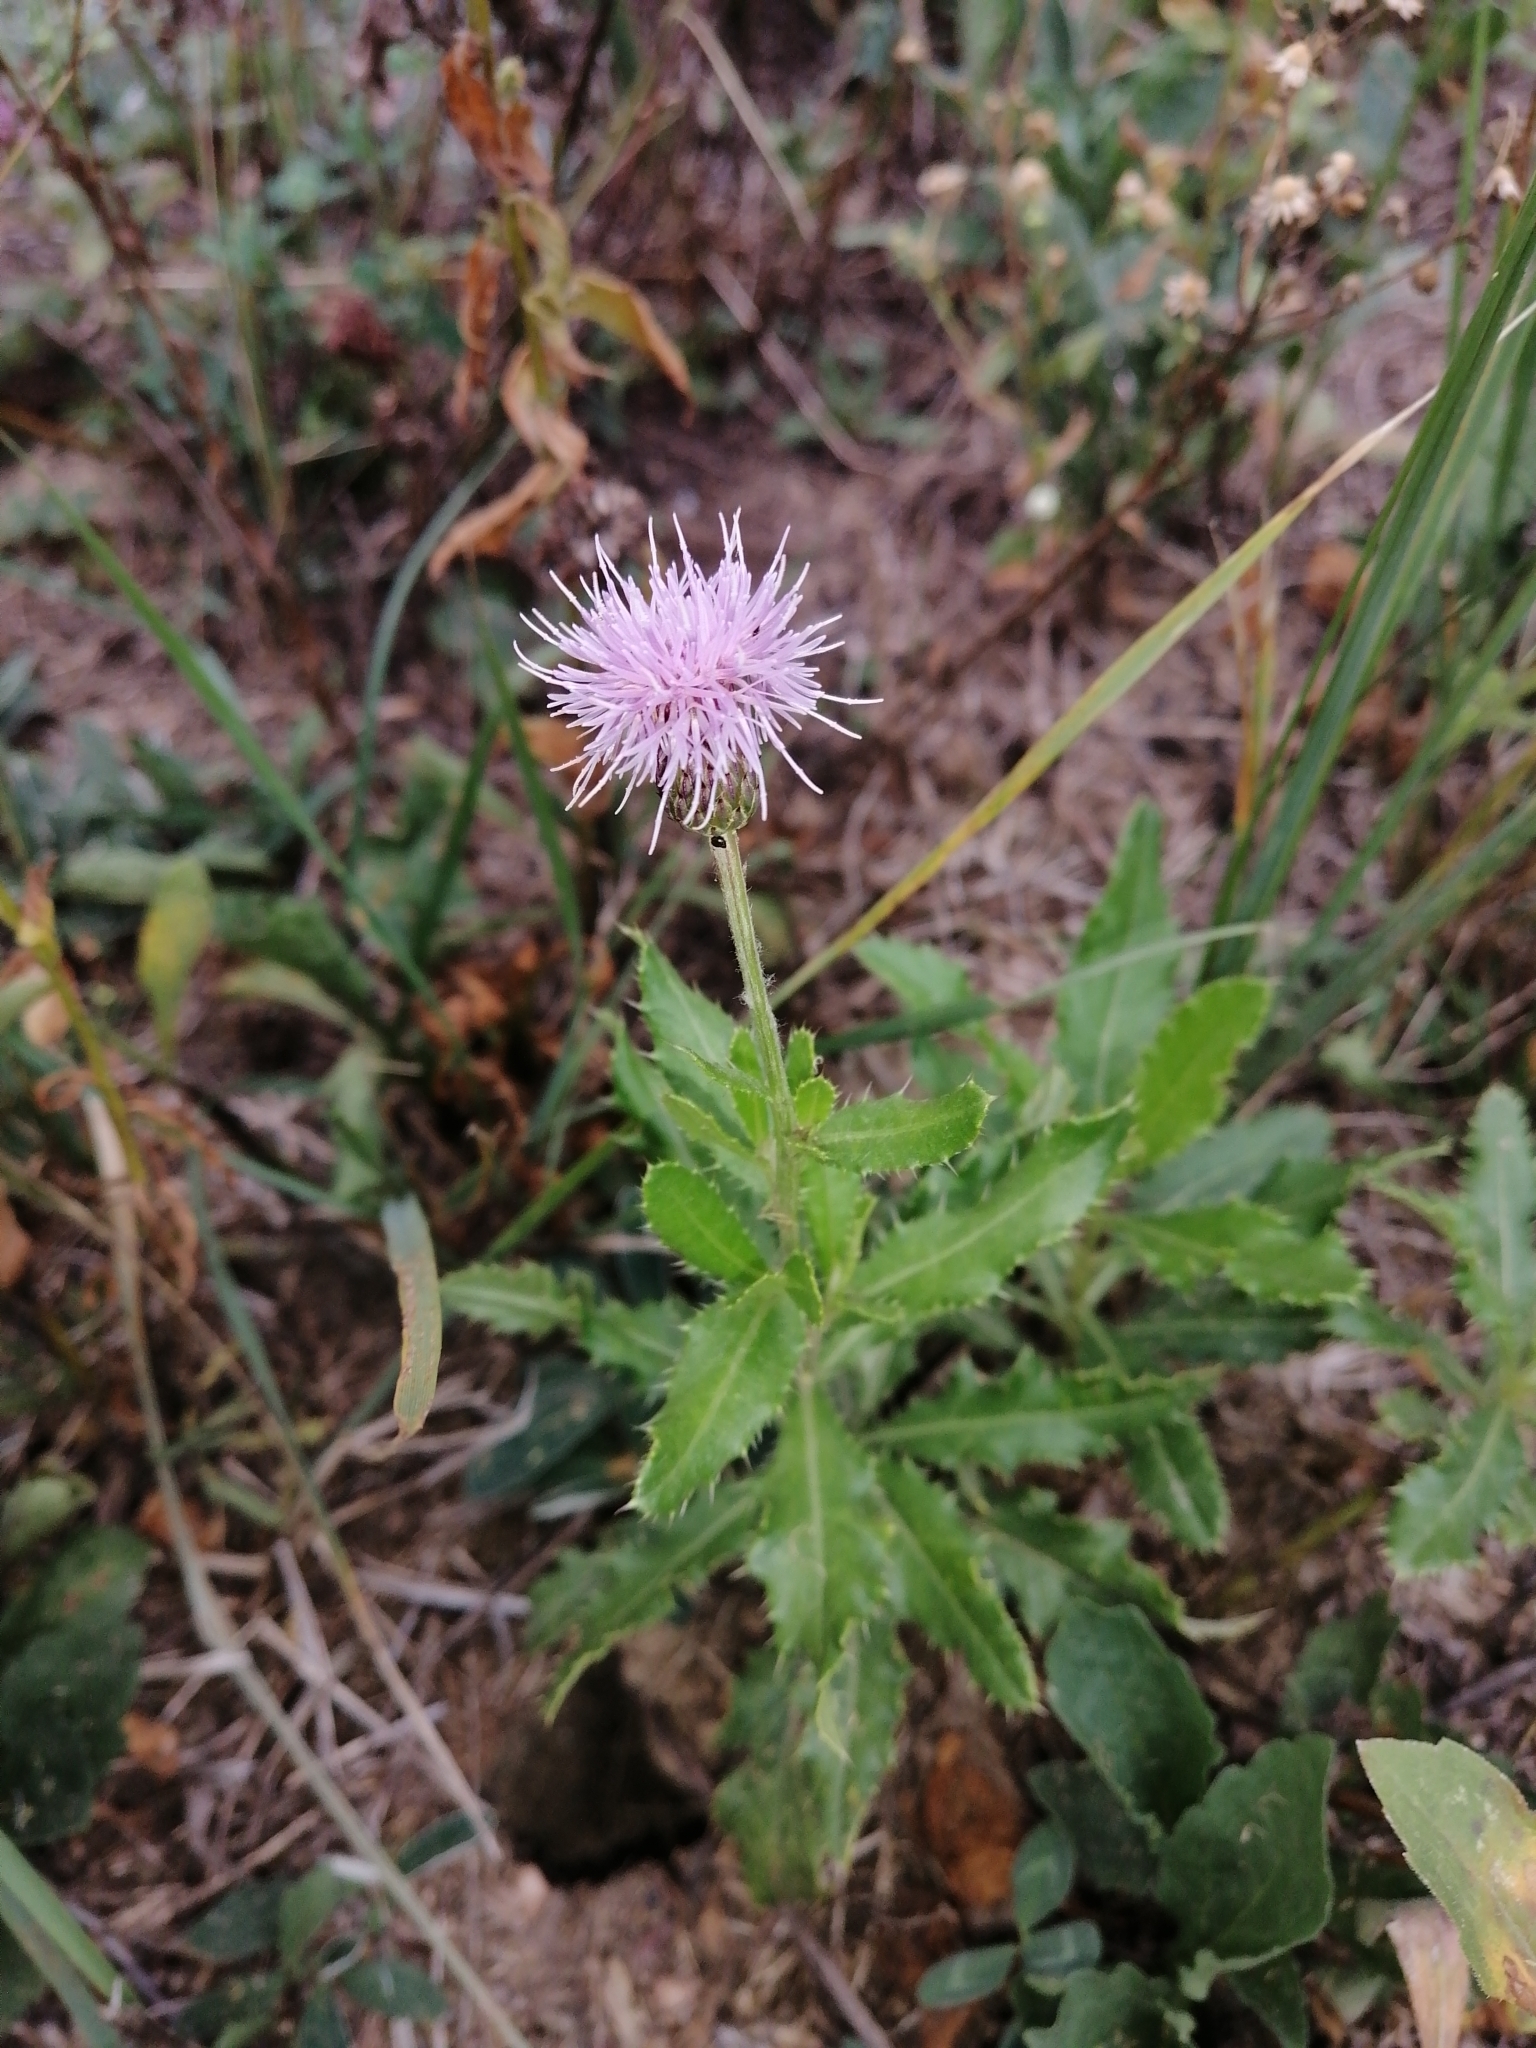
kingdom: Plantae
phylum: Tracheophyta
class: Magnoliopsida
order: Asterales
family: Asteraceae
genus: Cirsium
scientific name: Cirsium arvense
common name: Creeping thistle
